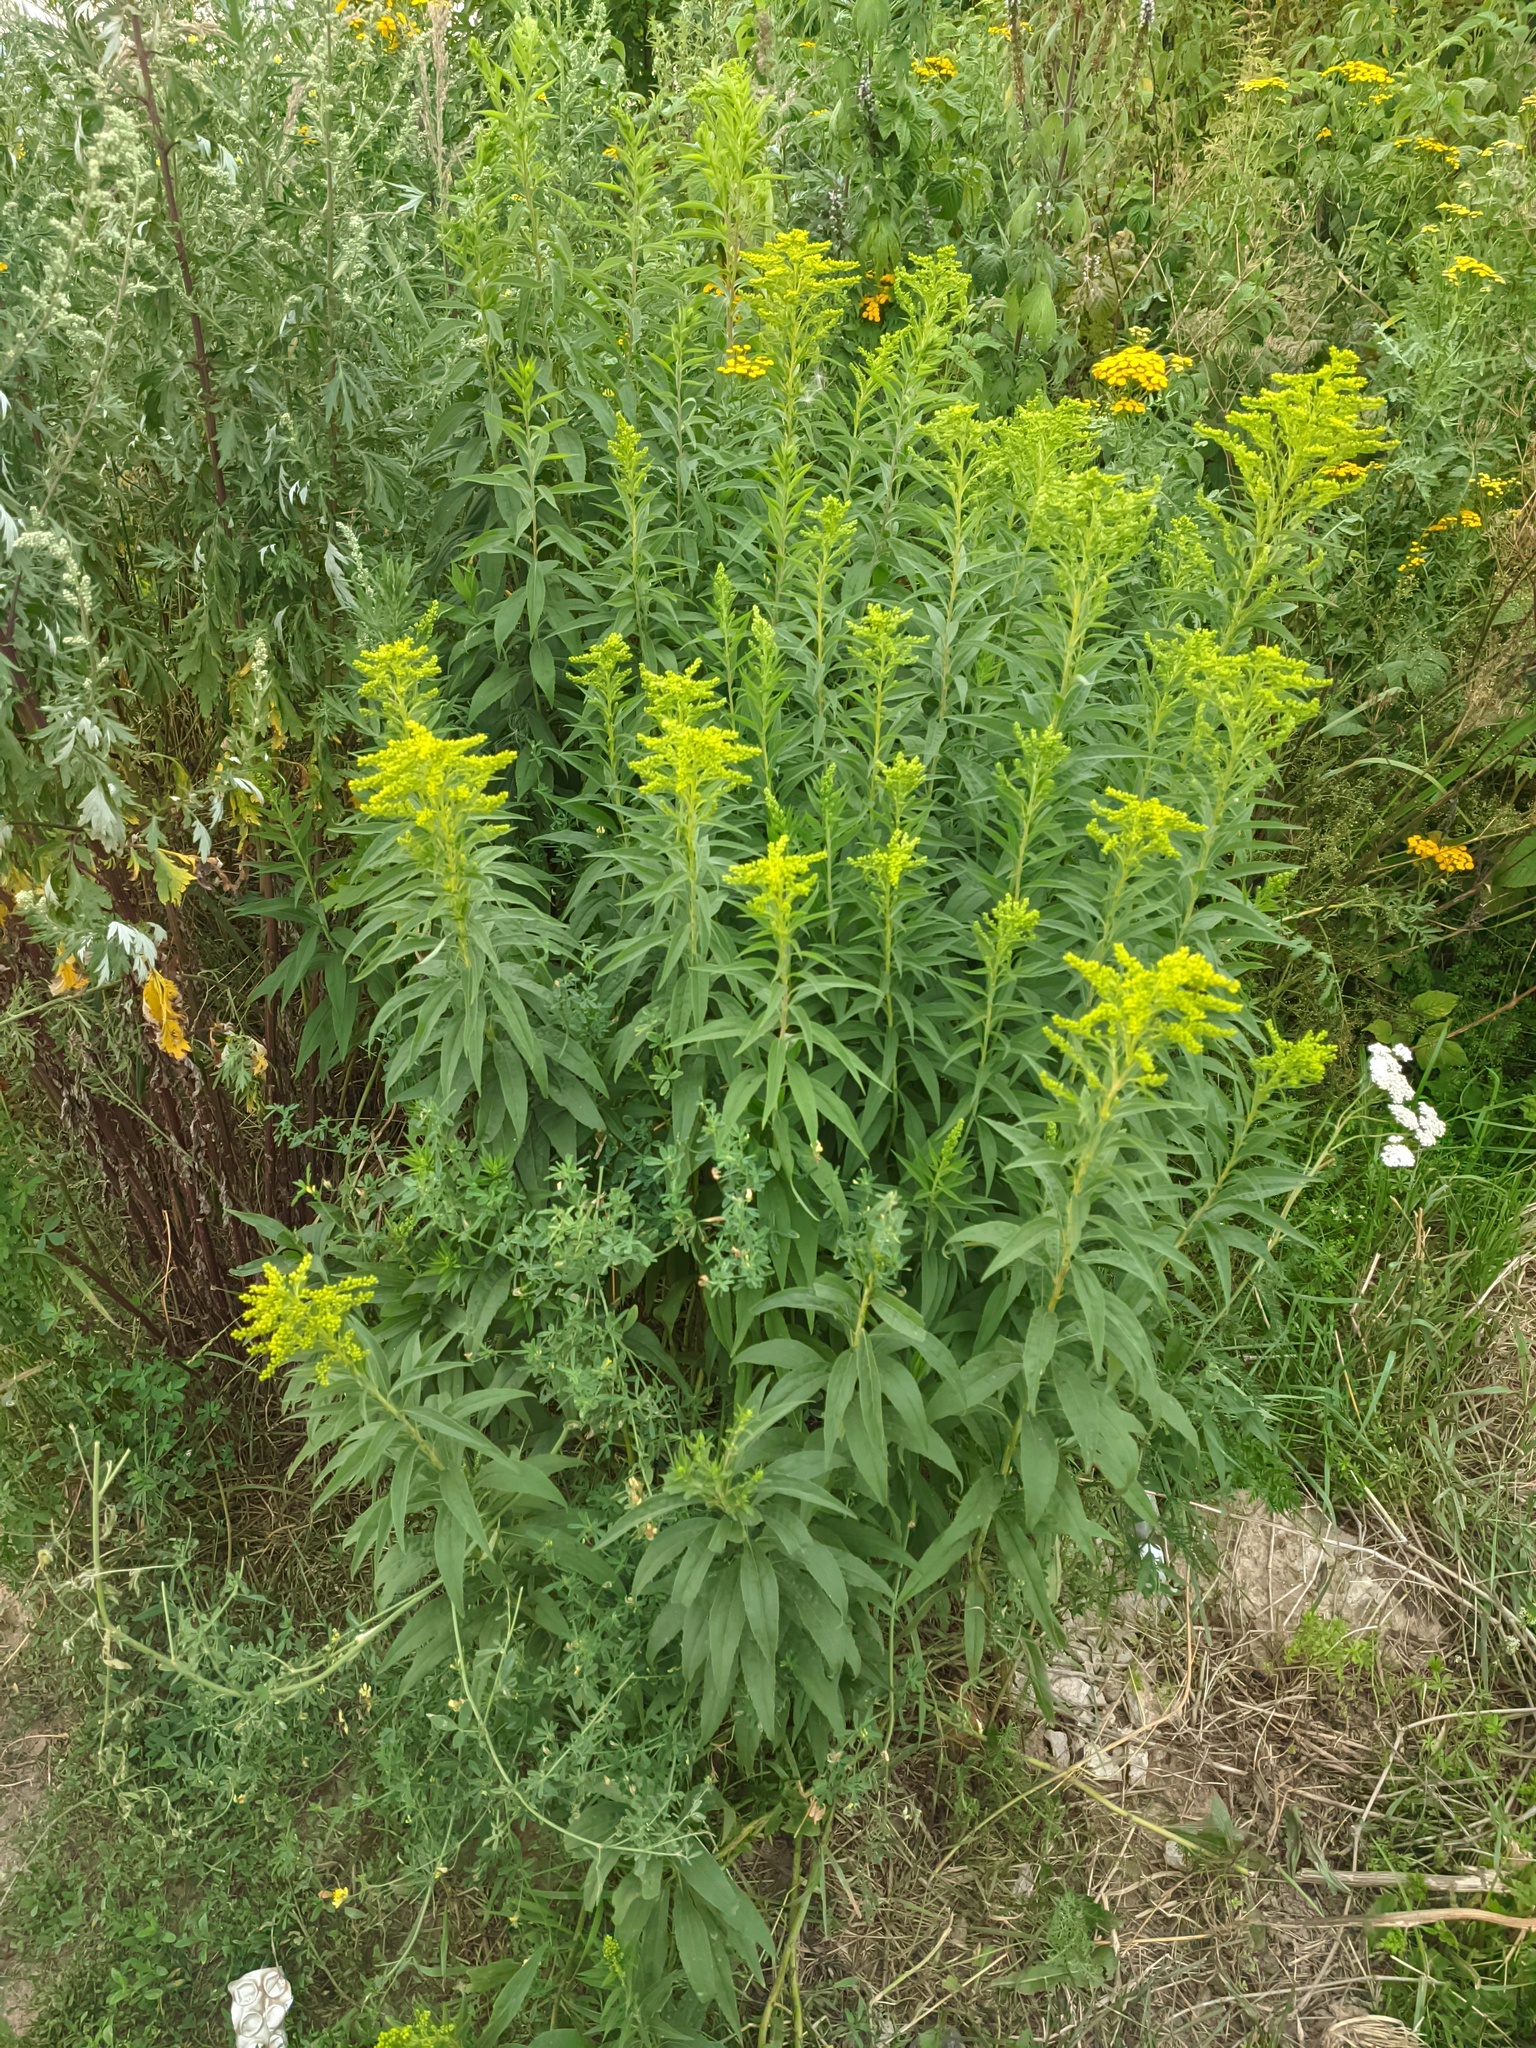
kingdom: Plantae
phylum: Tracheophyta
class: Magnoliopsida
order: Asterales
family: Asteraceae
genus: Solidago
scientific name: Solidago canadensis
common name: Canada goldenrod
